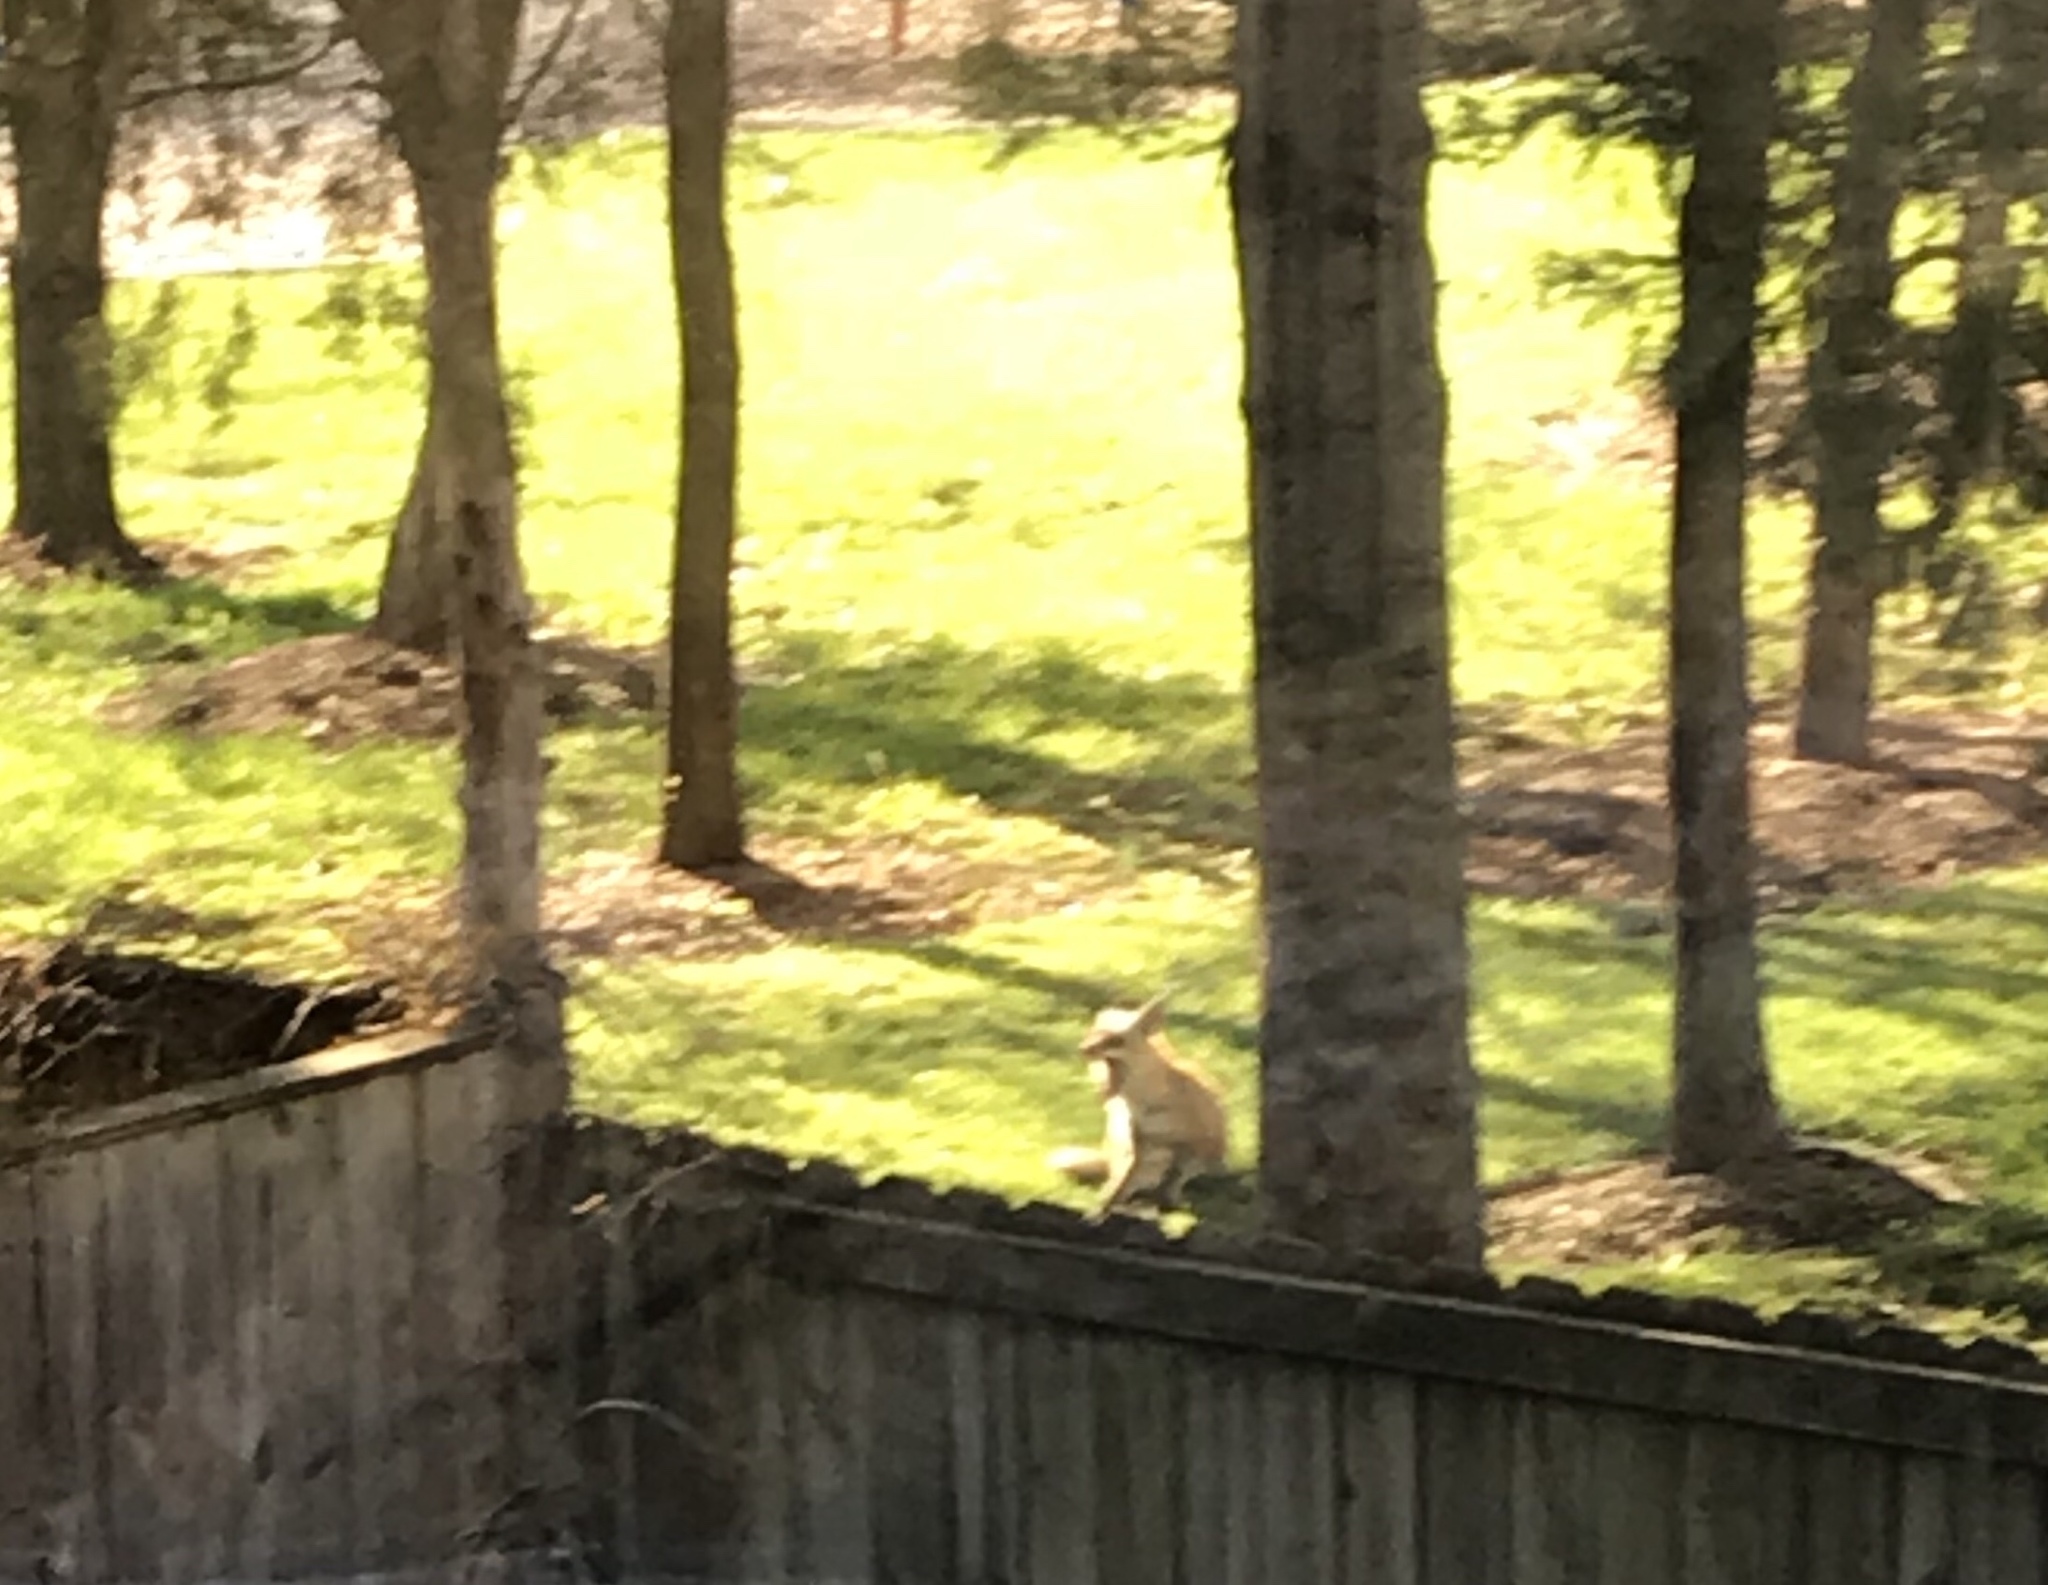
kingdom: Animalia
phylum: Chordata
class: Mammalia
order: Carnivora
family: Canidae
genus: Vulpes
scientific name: Vulpes vulpes
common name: Red fox
